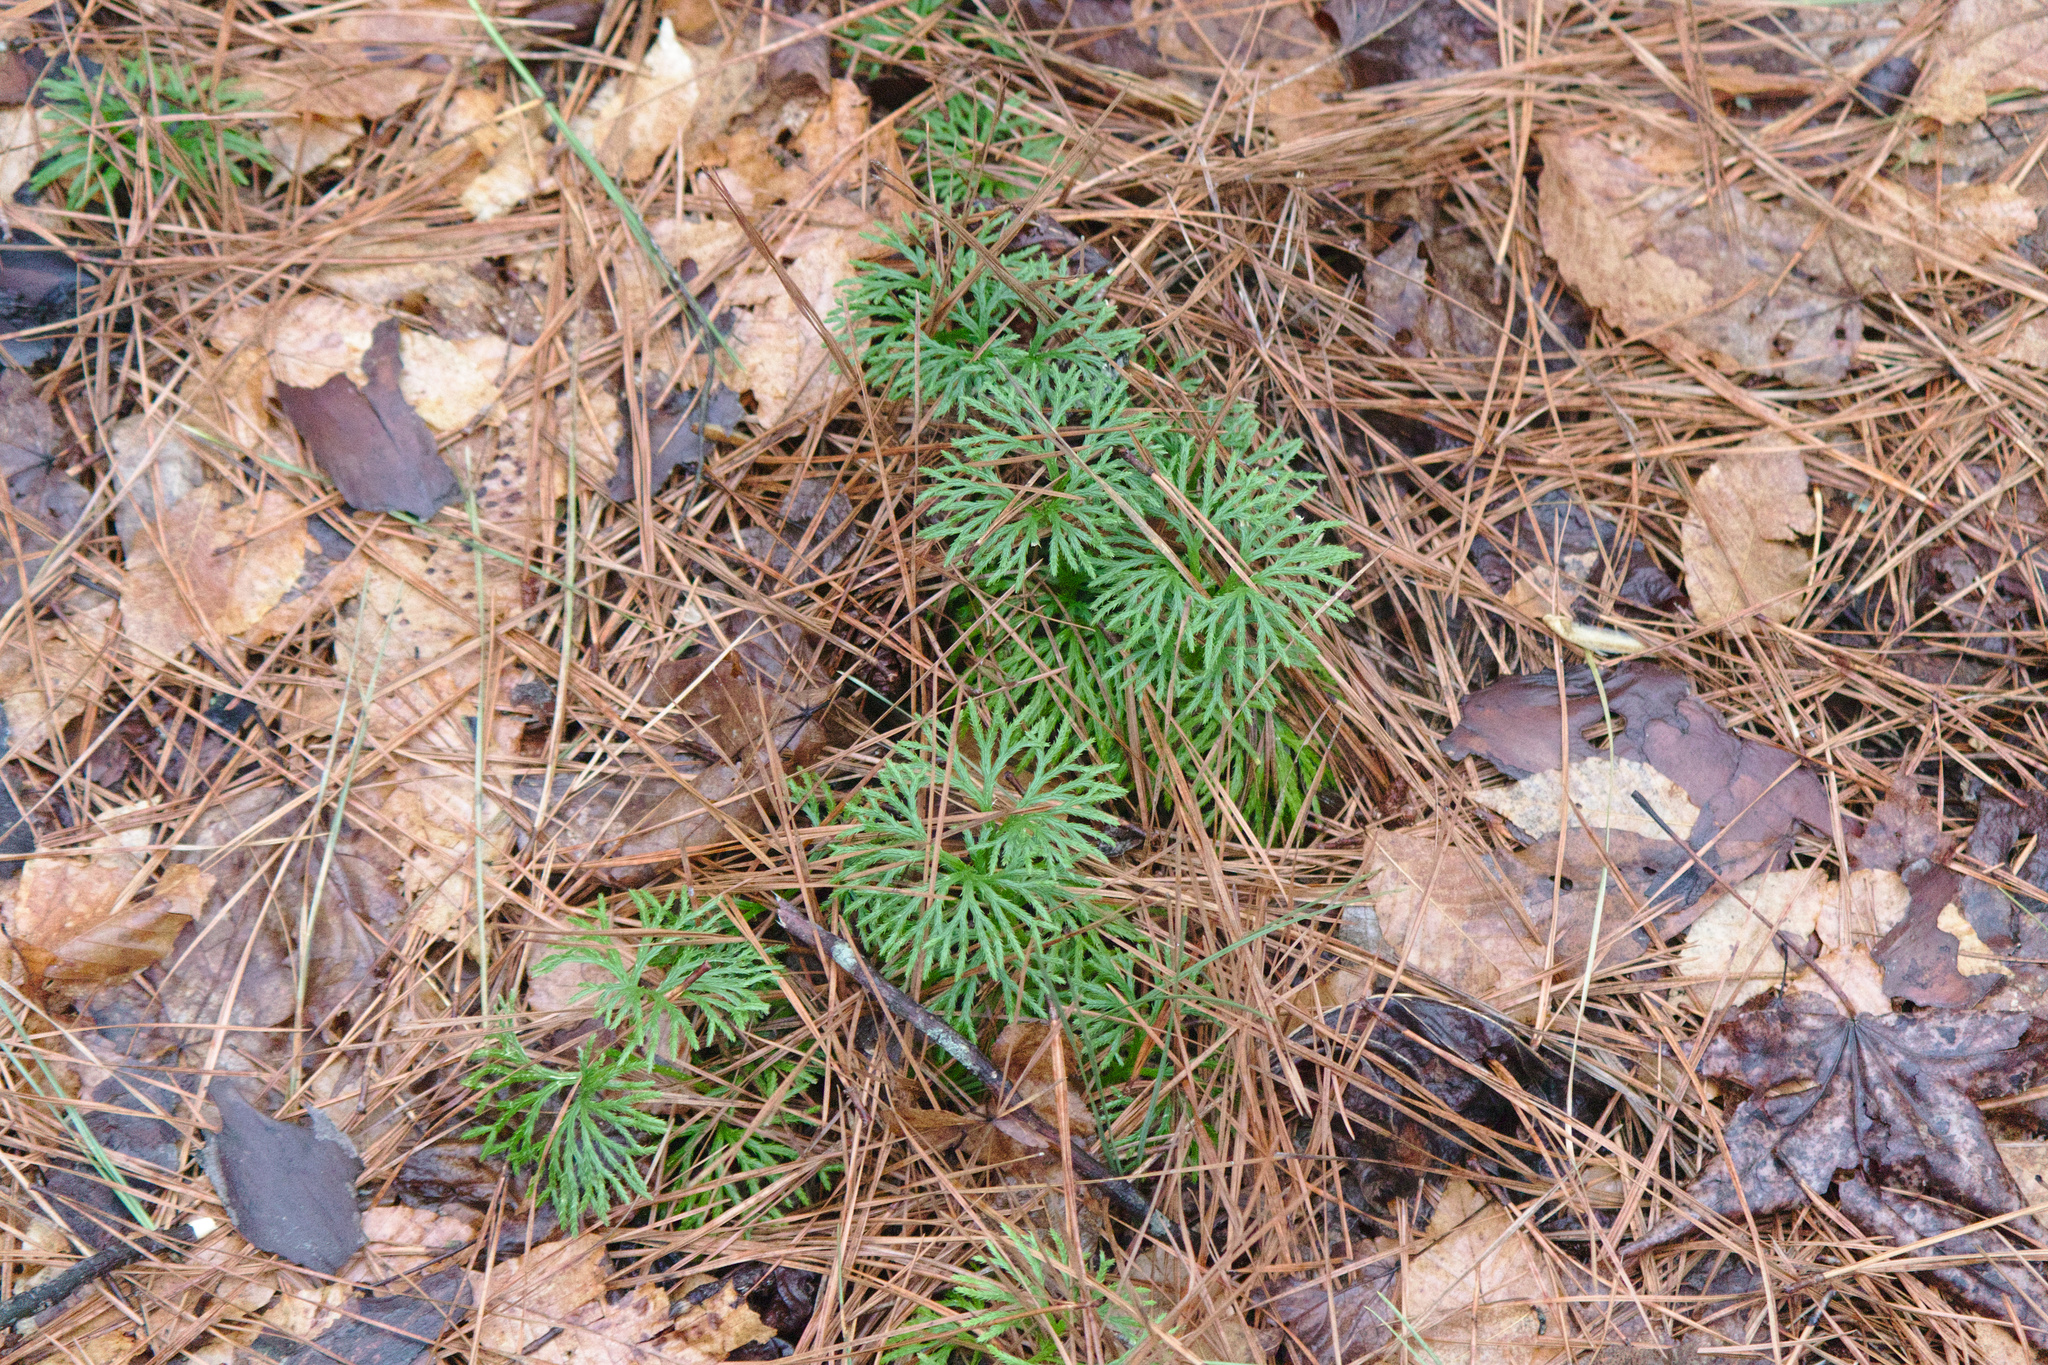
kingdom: Plantae
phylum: Tracheophyta
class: Lycopodiopsida
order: Lycopodiales
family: Lycopodiaceae
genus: Diphasiastrum
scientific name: Diphasiastrum digitatum
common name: Southern running-pine
